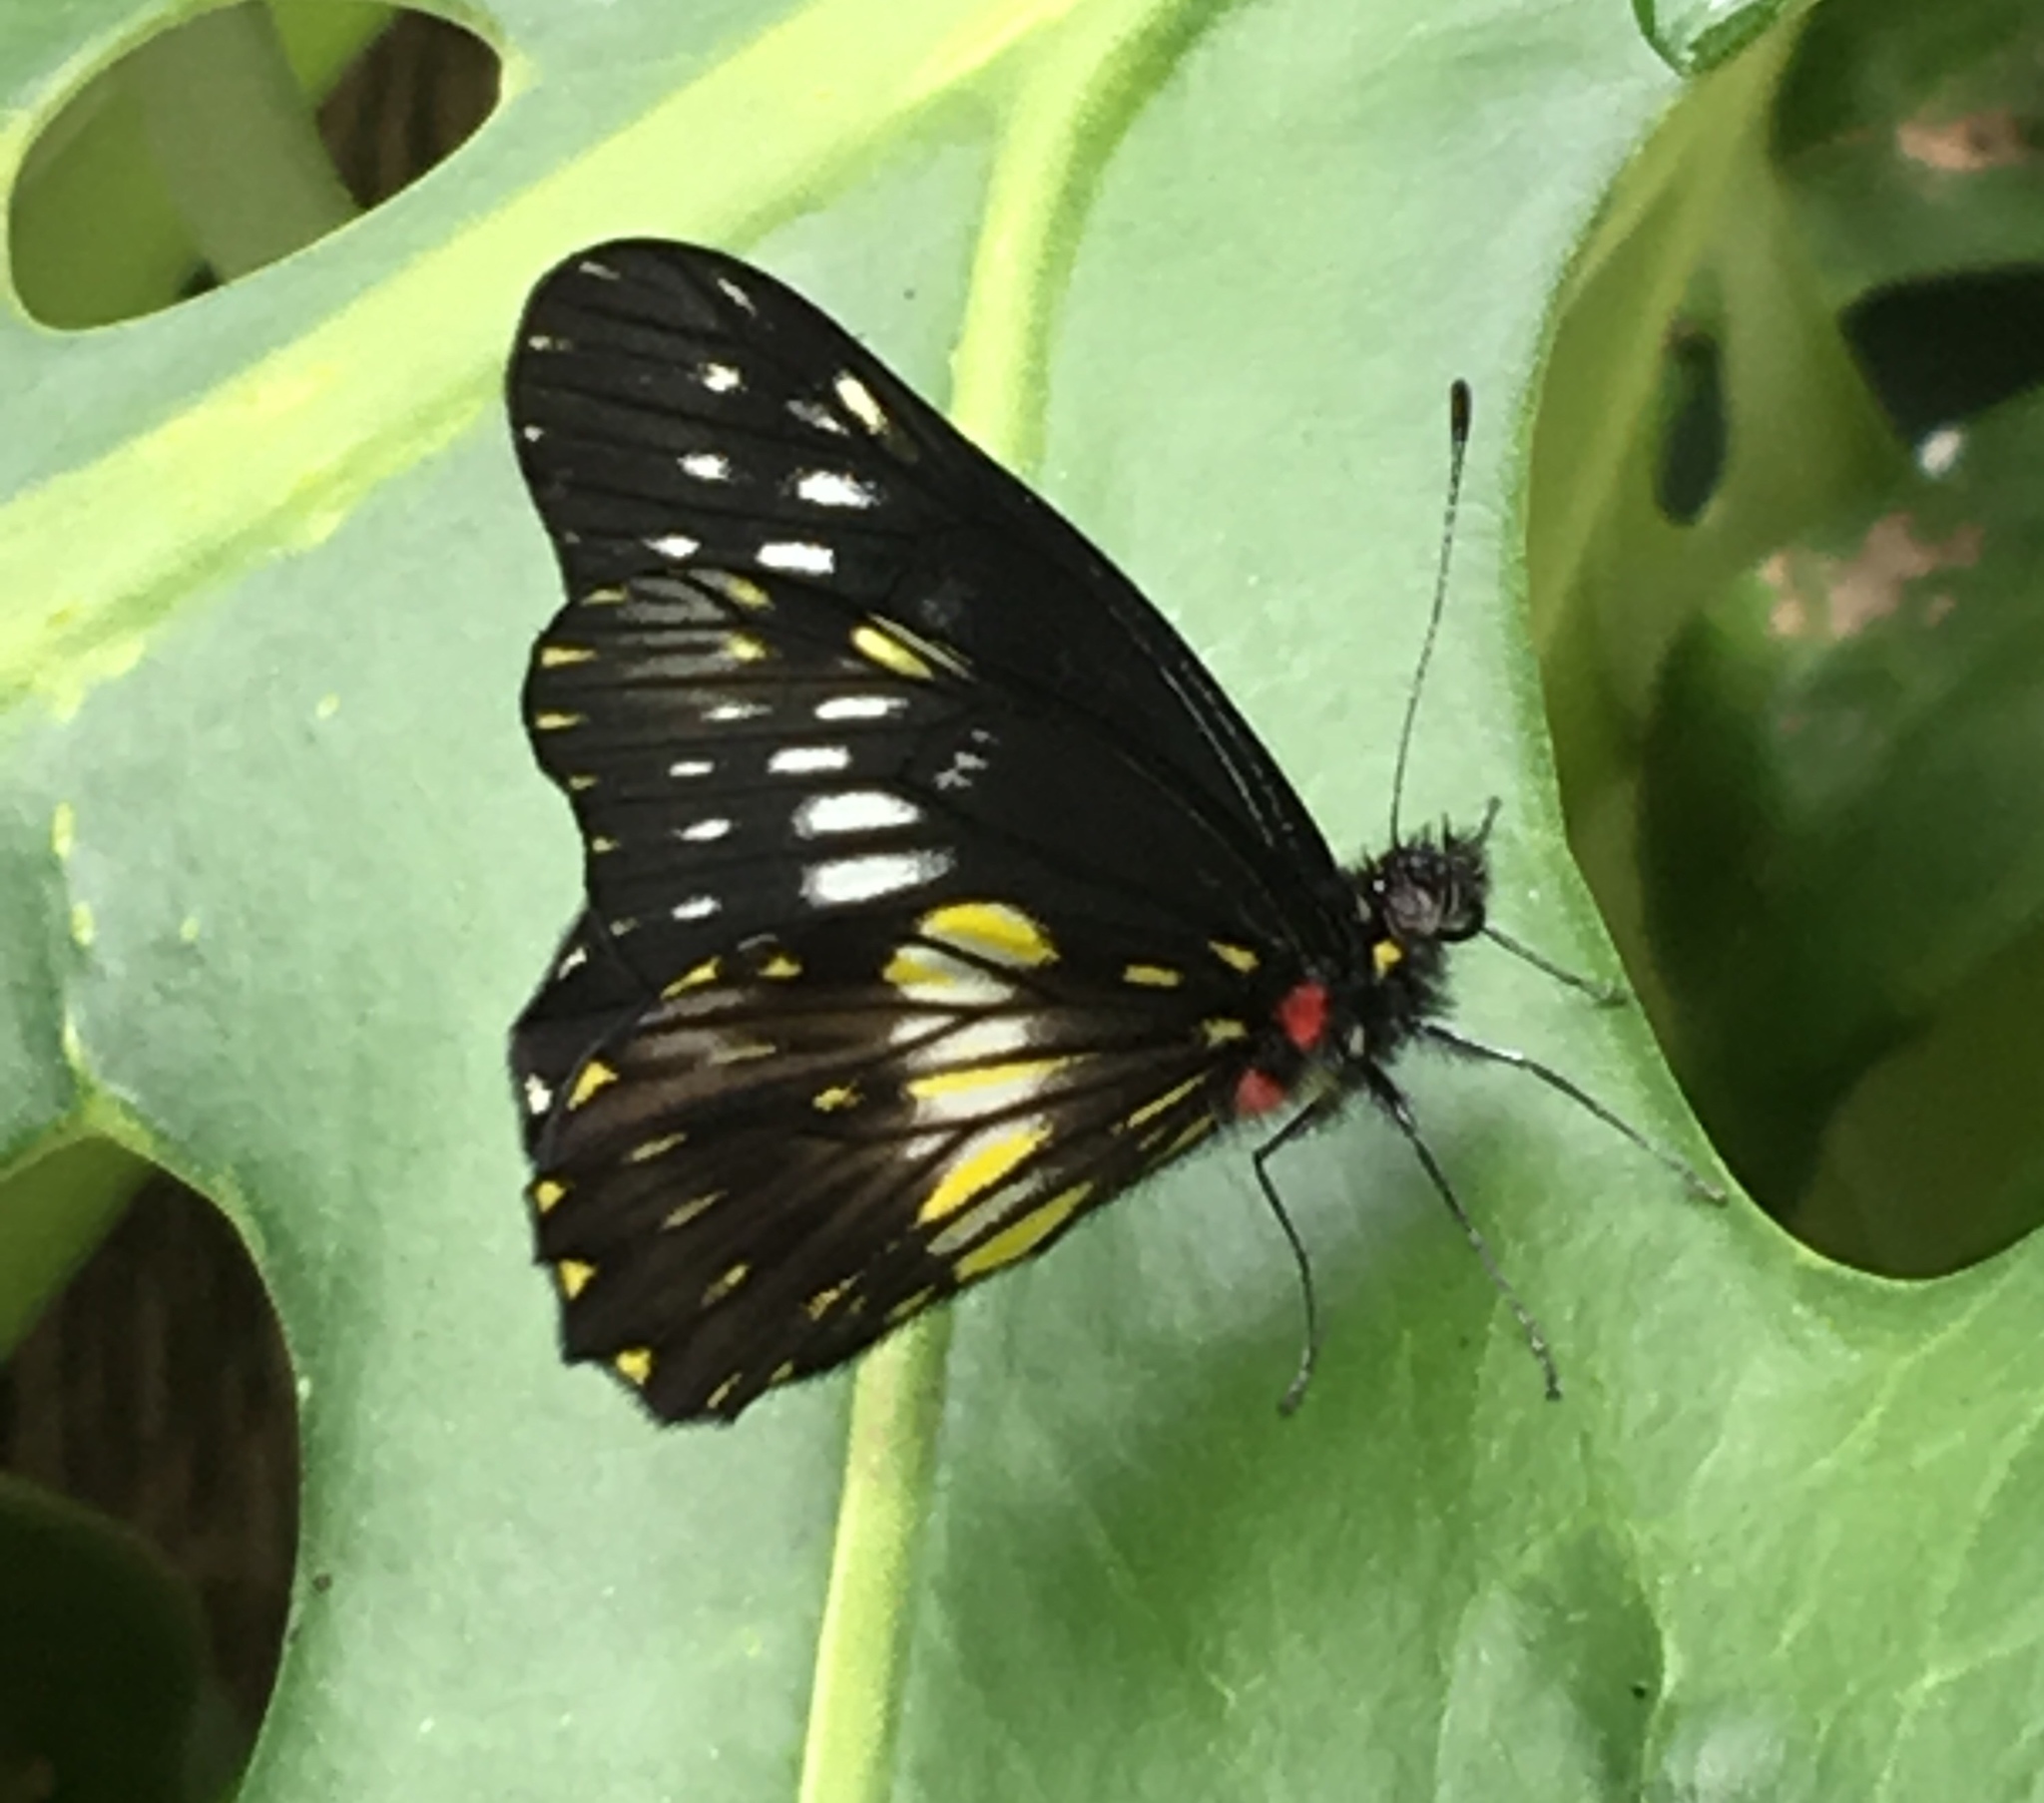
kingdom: Animalia
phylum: Arthropoda
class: Insecta
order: Lepidoptera
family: Pieridae
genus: Archonias
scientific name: Archonias flisa
